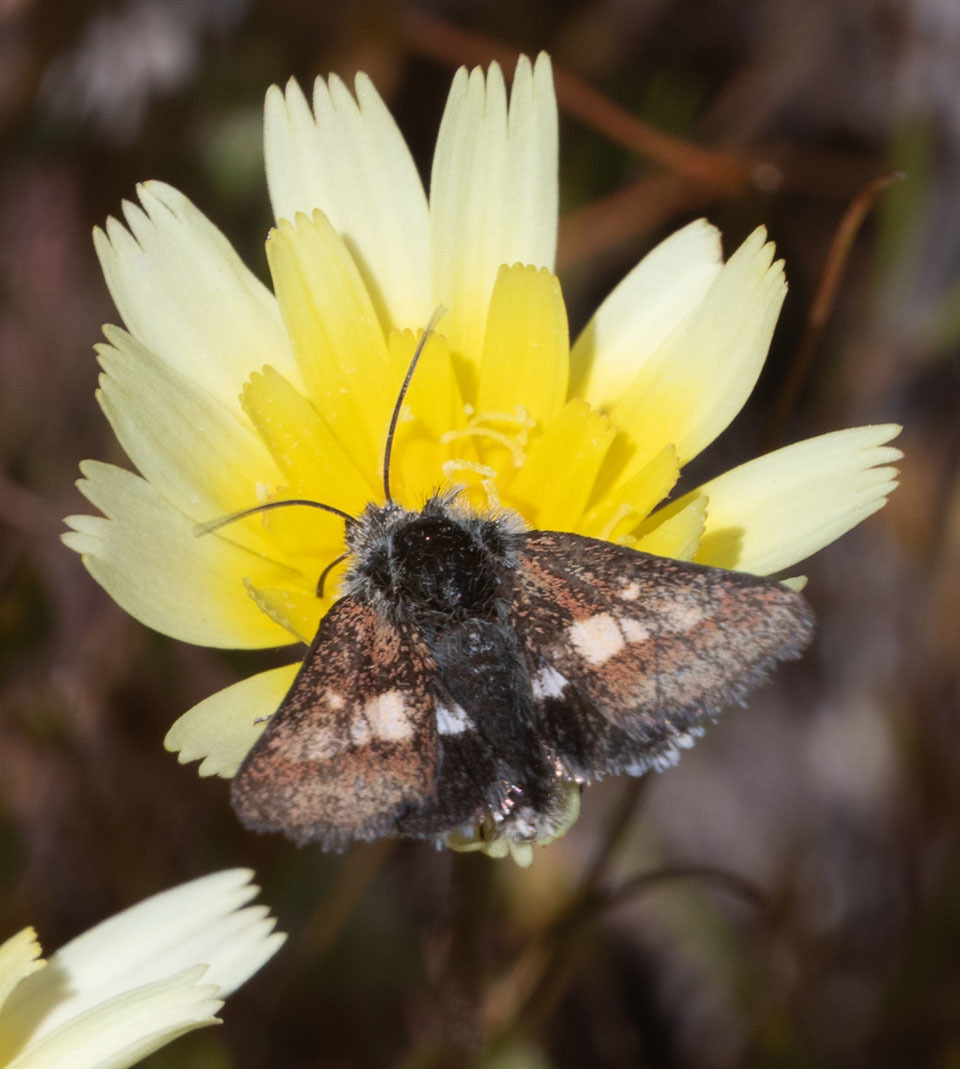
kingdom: Animalia
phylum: Arthropoda
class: Insecta
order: Lepidoptera
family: Noctuidae
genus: Heliolonche
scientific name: Heliolonche joaquinensis
